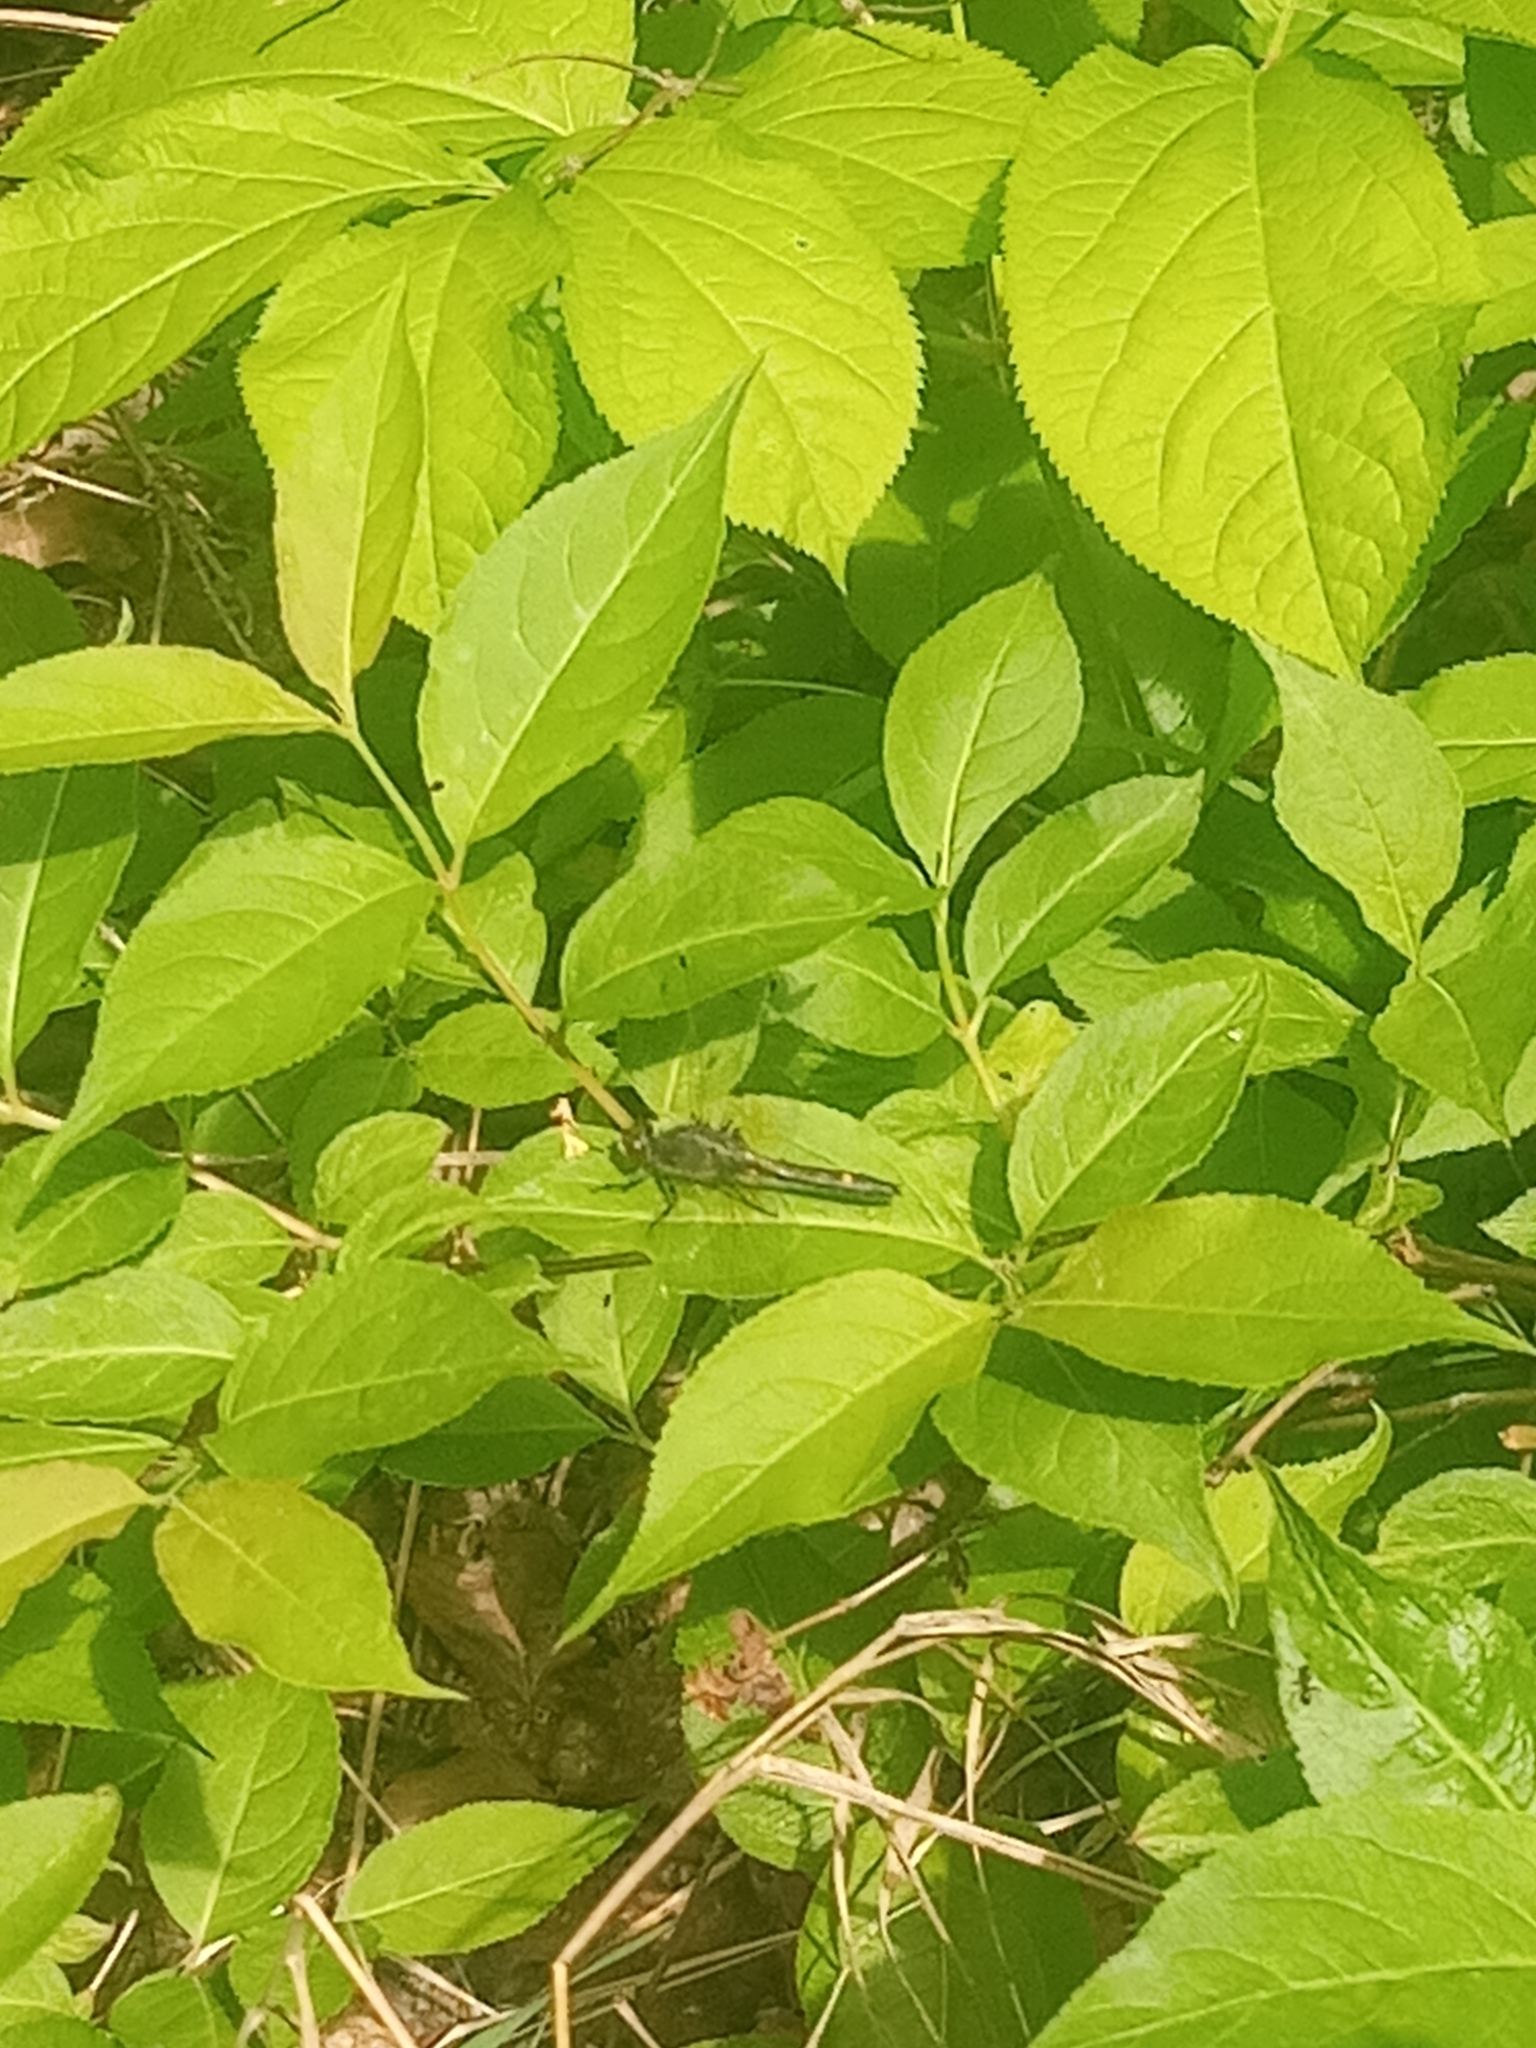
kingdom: Animalia
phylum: Arthropoda
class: Insecta
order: Odonata
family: Libellulidae
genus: Leucorrhinia
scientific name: Leucorrhinia intacta
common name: Dot-tailed whiteface
